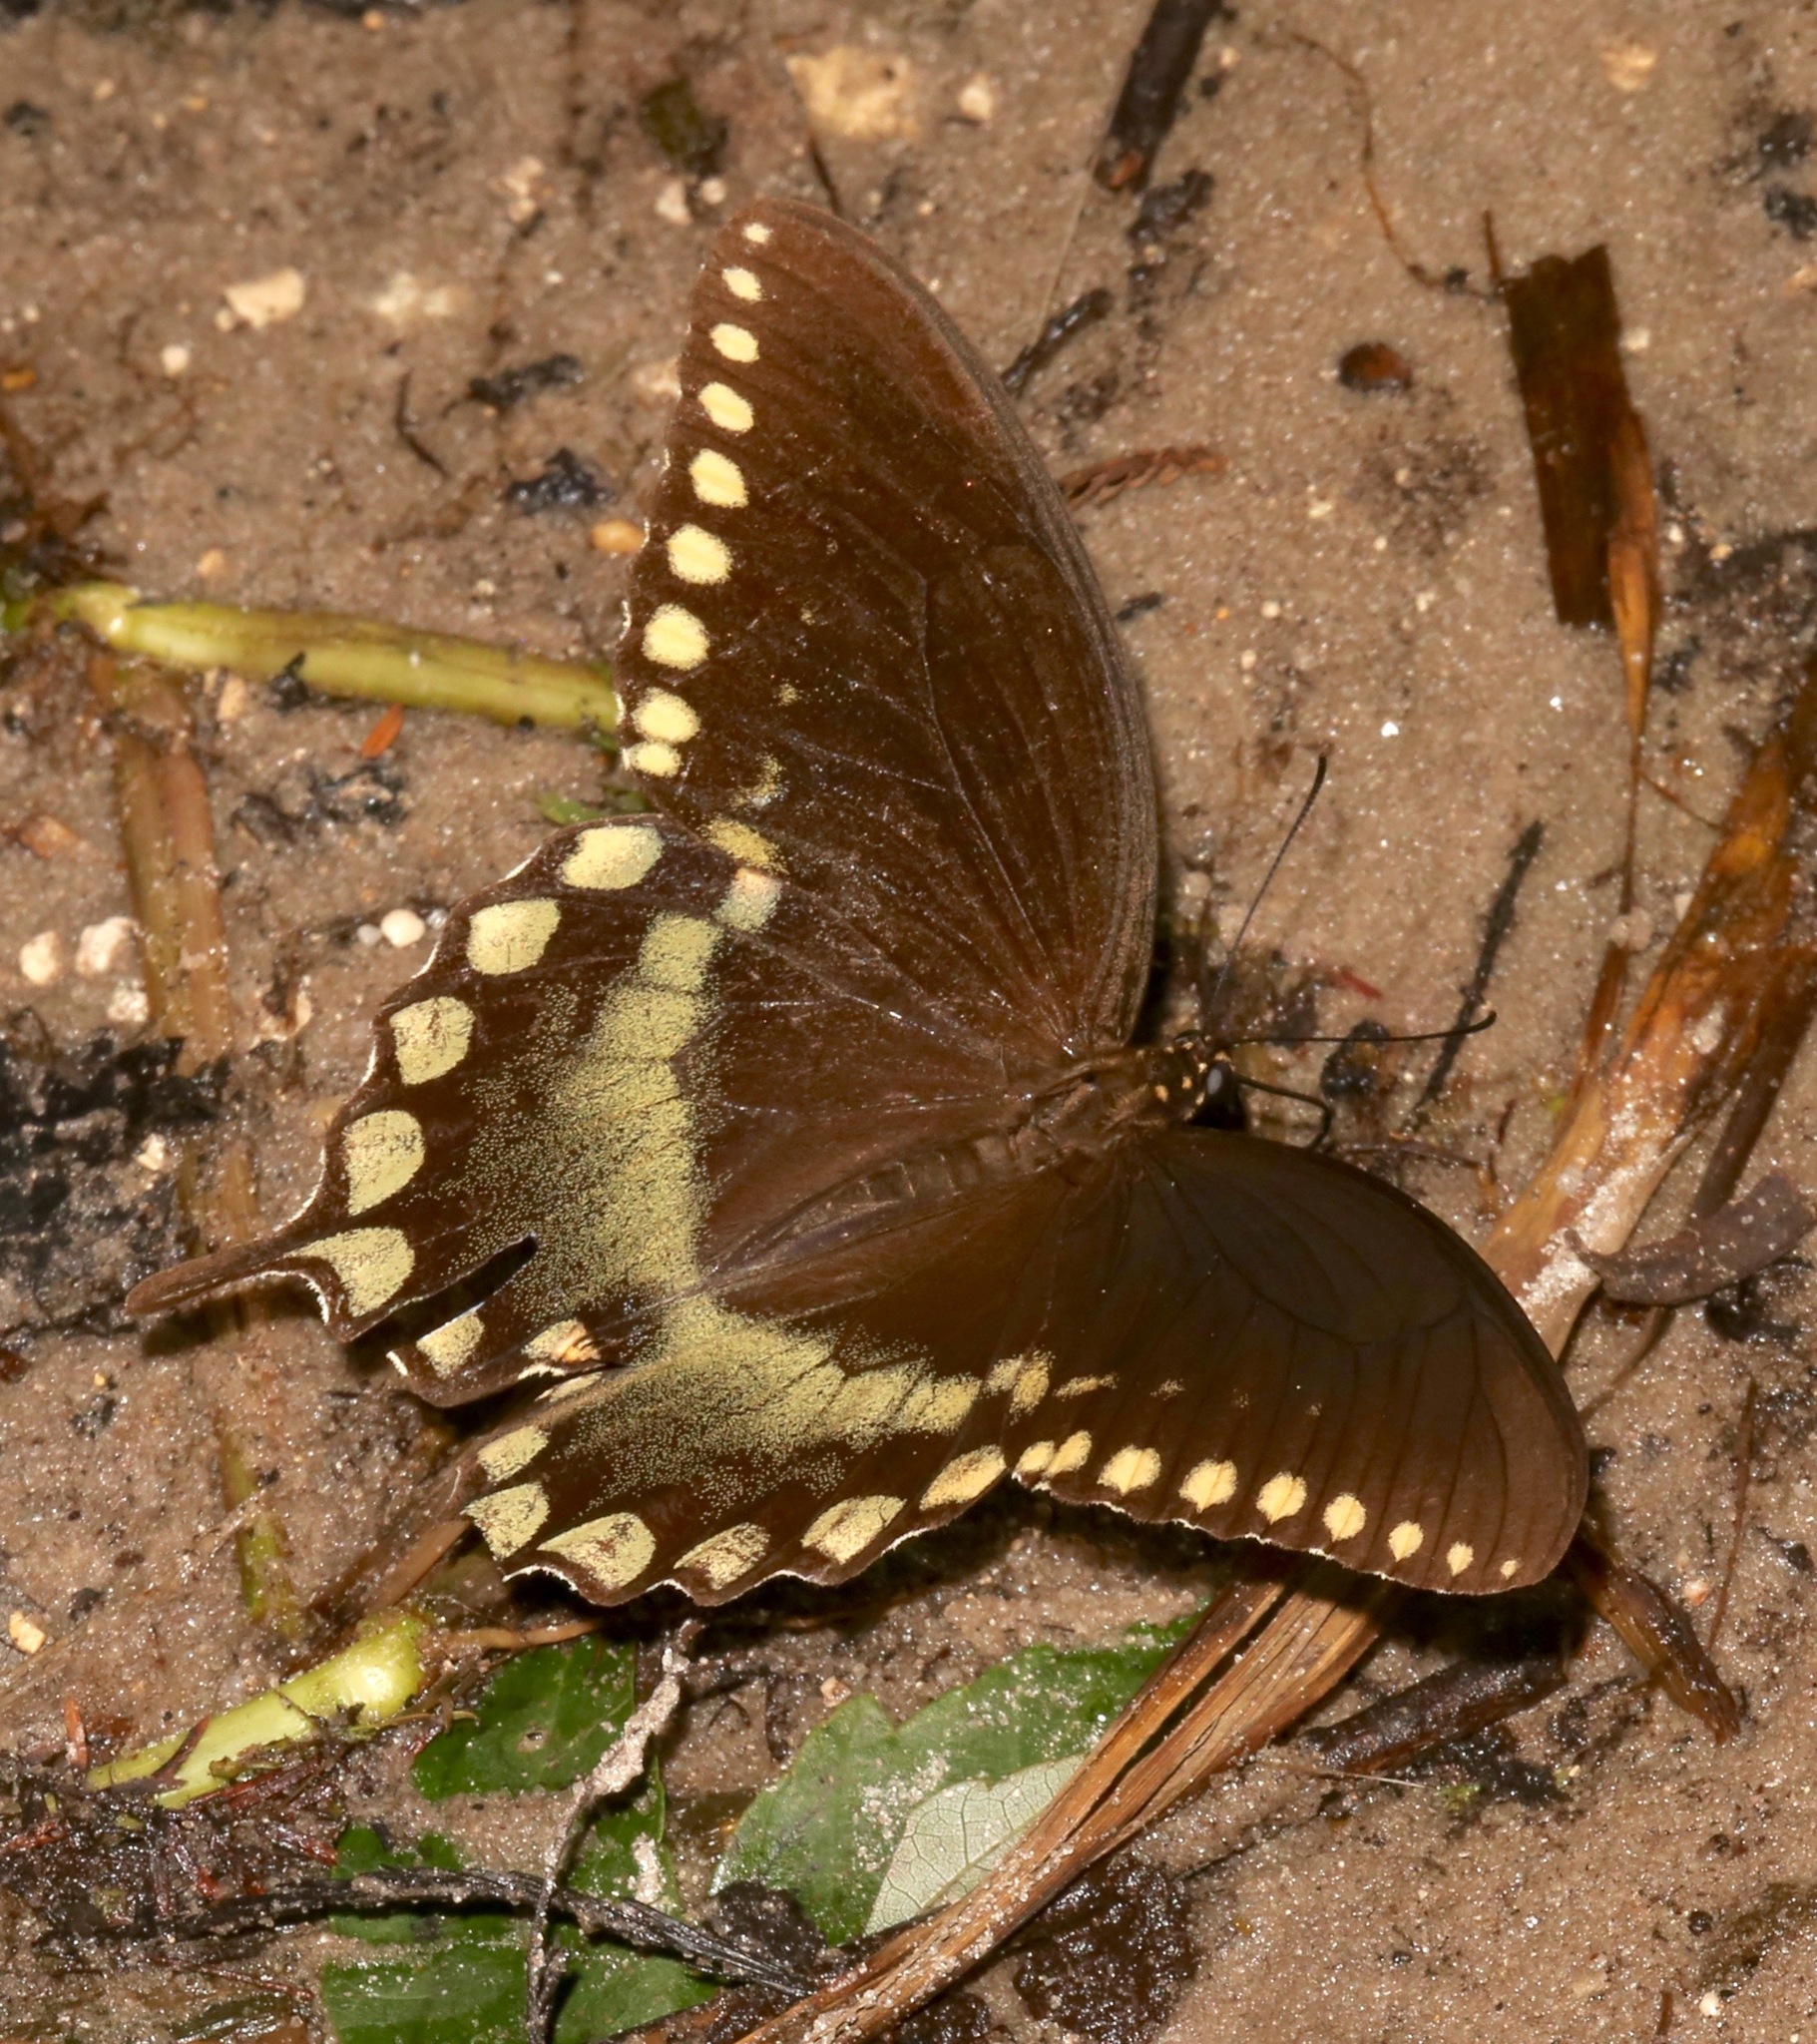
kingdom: Animalia
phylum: Arthropoda
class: Insecta
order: Lepidoptera
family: Papilionidae
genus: Papilio
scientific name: Papilio troilus
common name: Spicebush swallowtail
